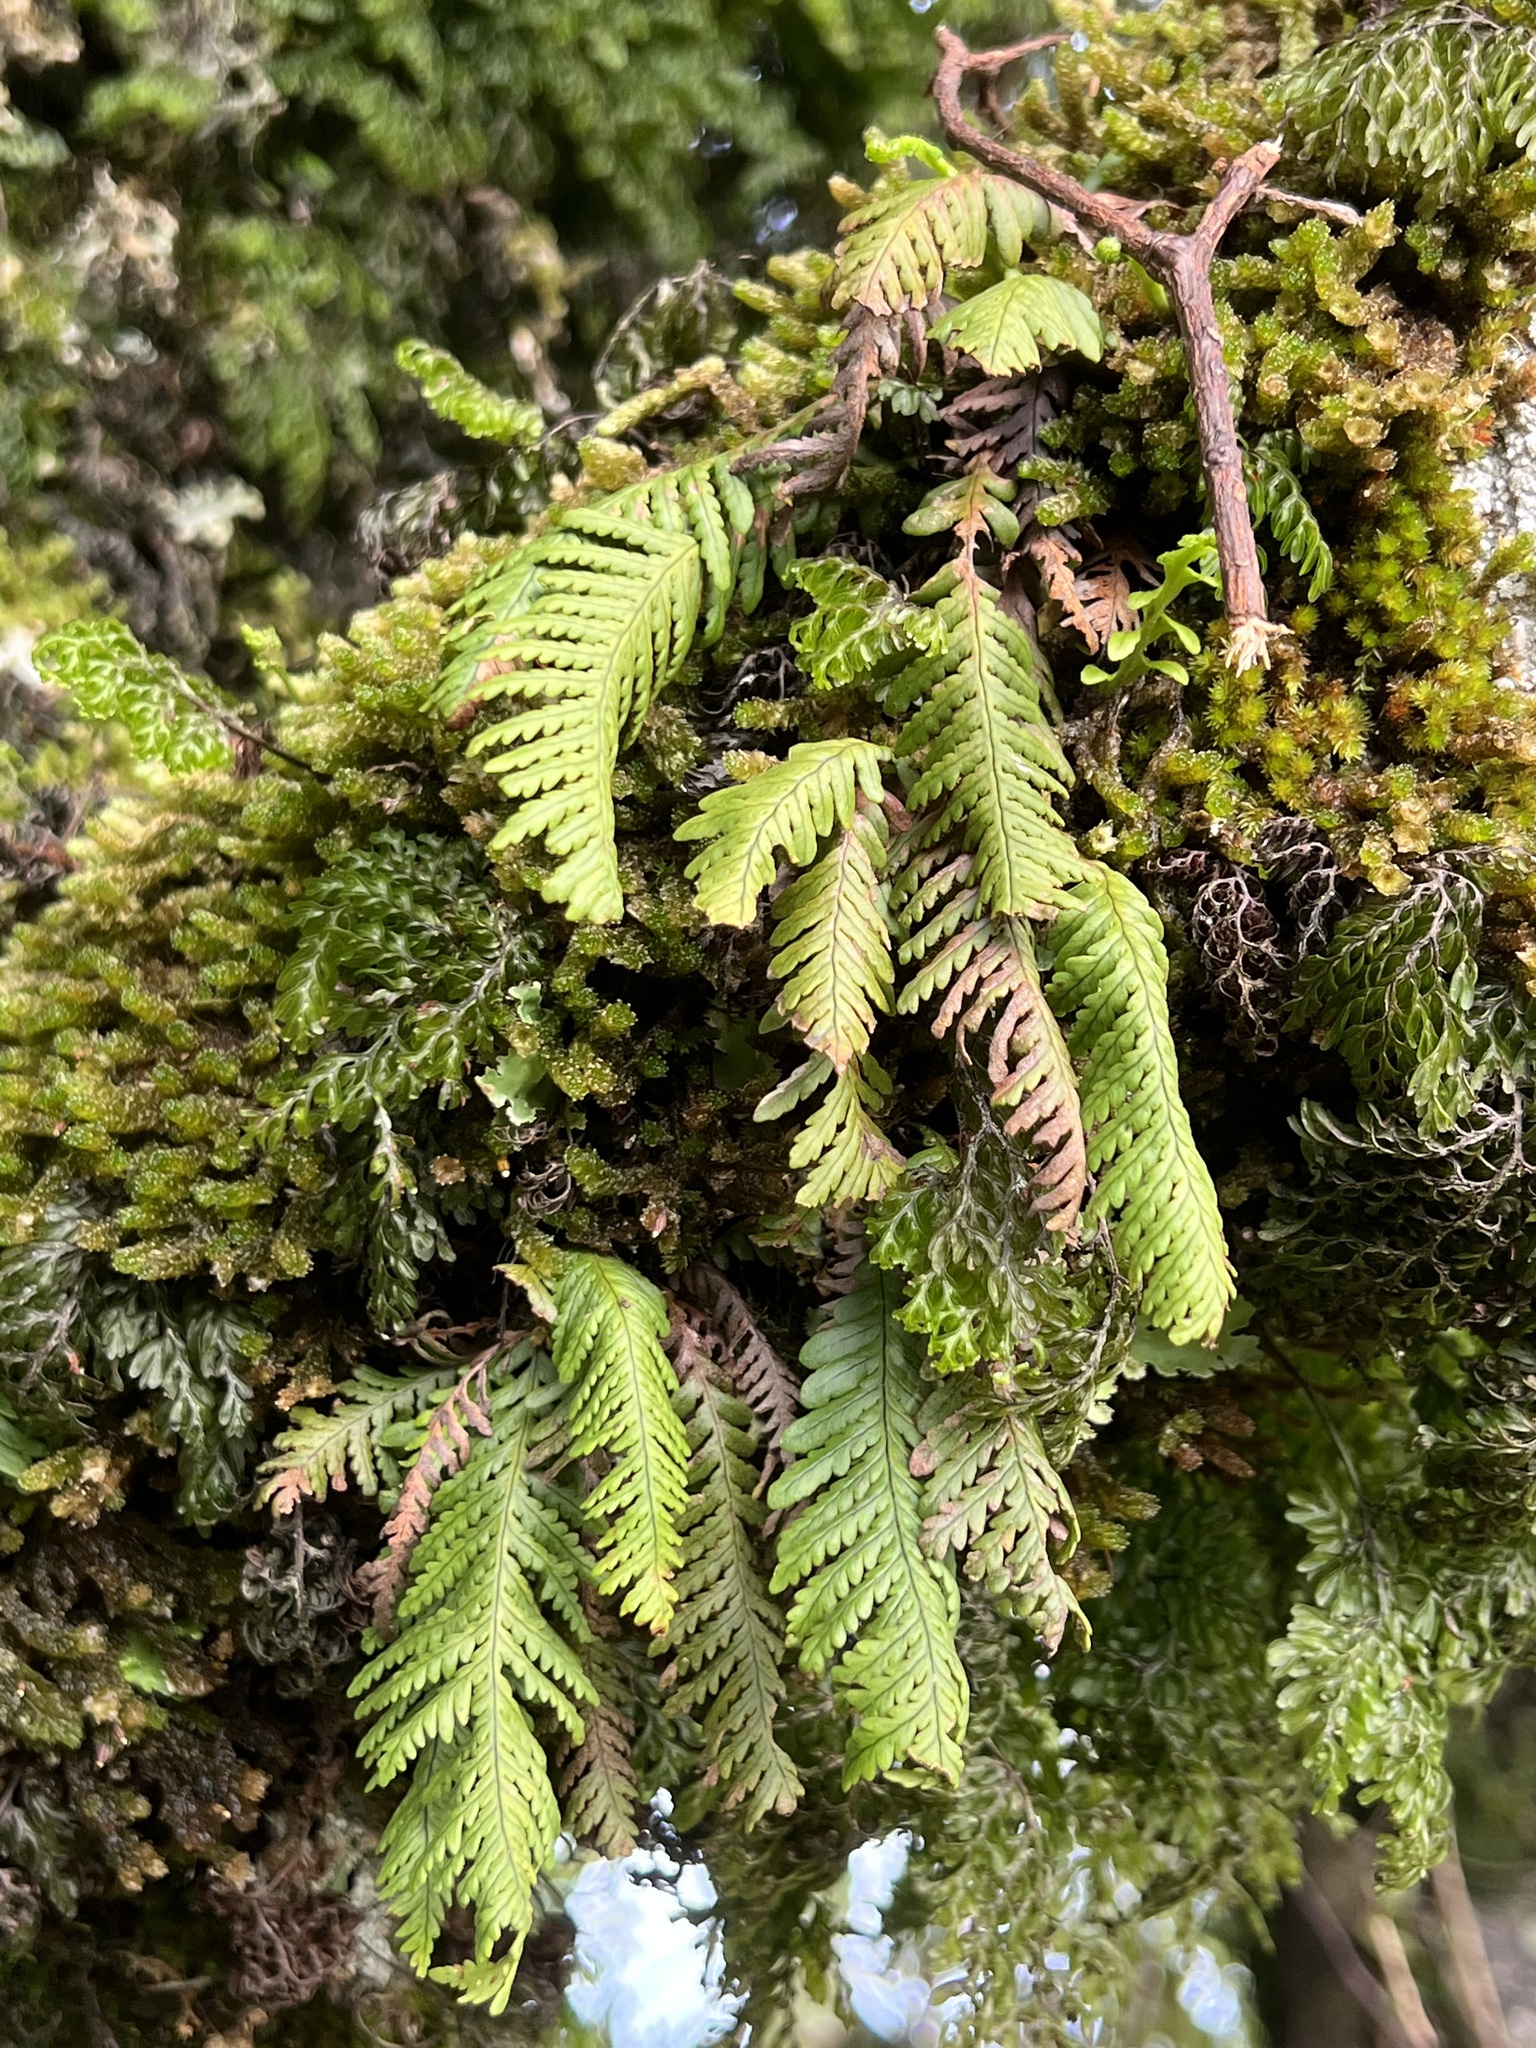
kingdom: Plantae
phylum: Tracheophyta
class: Polypodiopsida
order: Polypodiales
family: Polypodiaceae
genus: Notogrammitis
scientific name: Notogrammitis heterophylla
